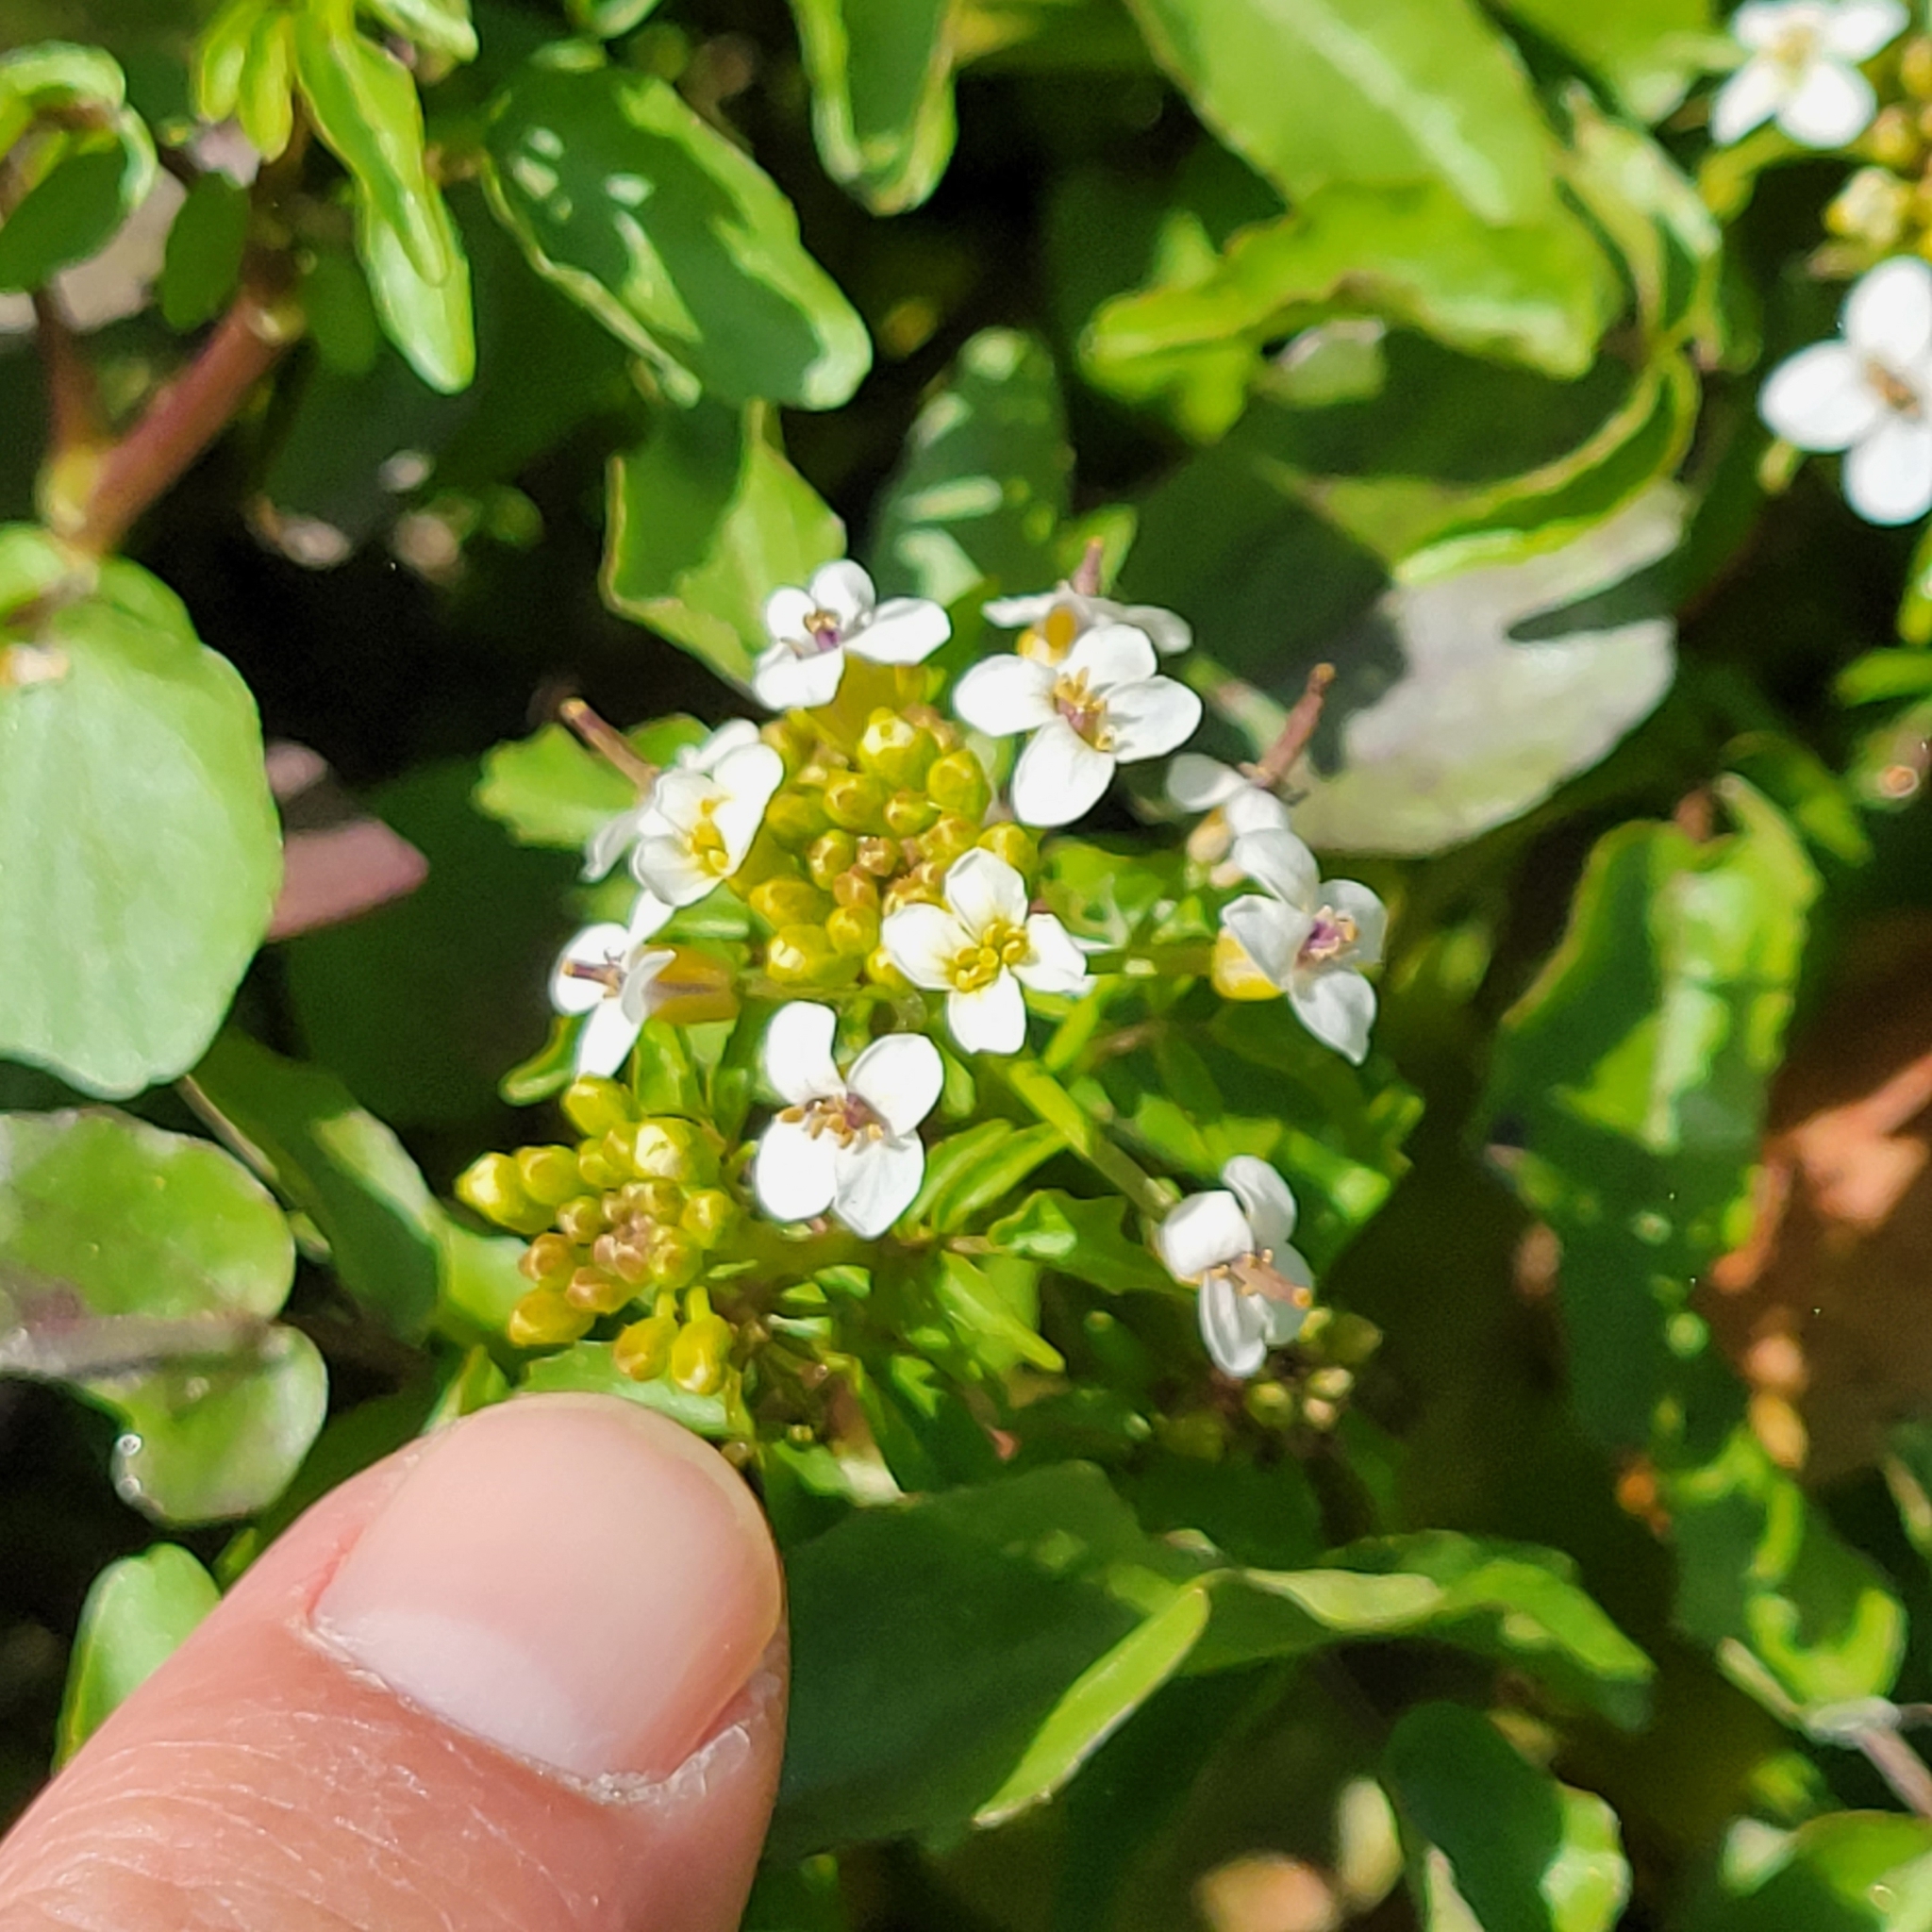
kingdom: Plantae
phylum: Tracheophyta
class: Magnoliopsida
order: Brassicales
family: Brassicaceae
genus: Nasturtium
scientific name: Nasturtium officinale
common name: Watercress
